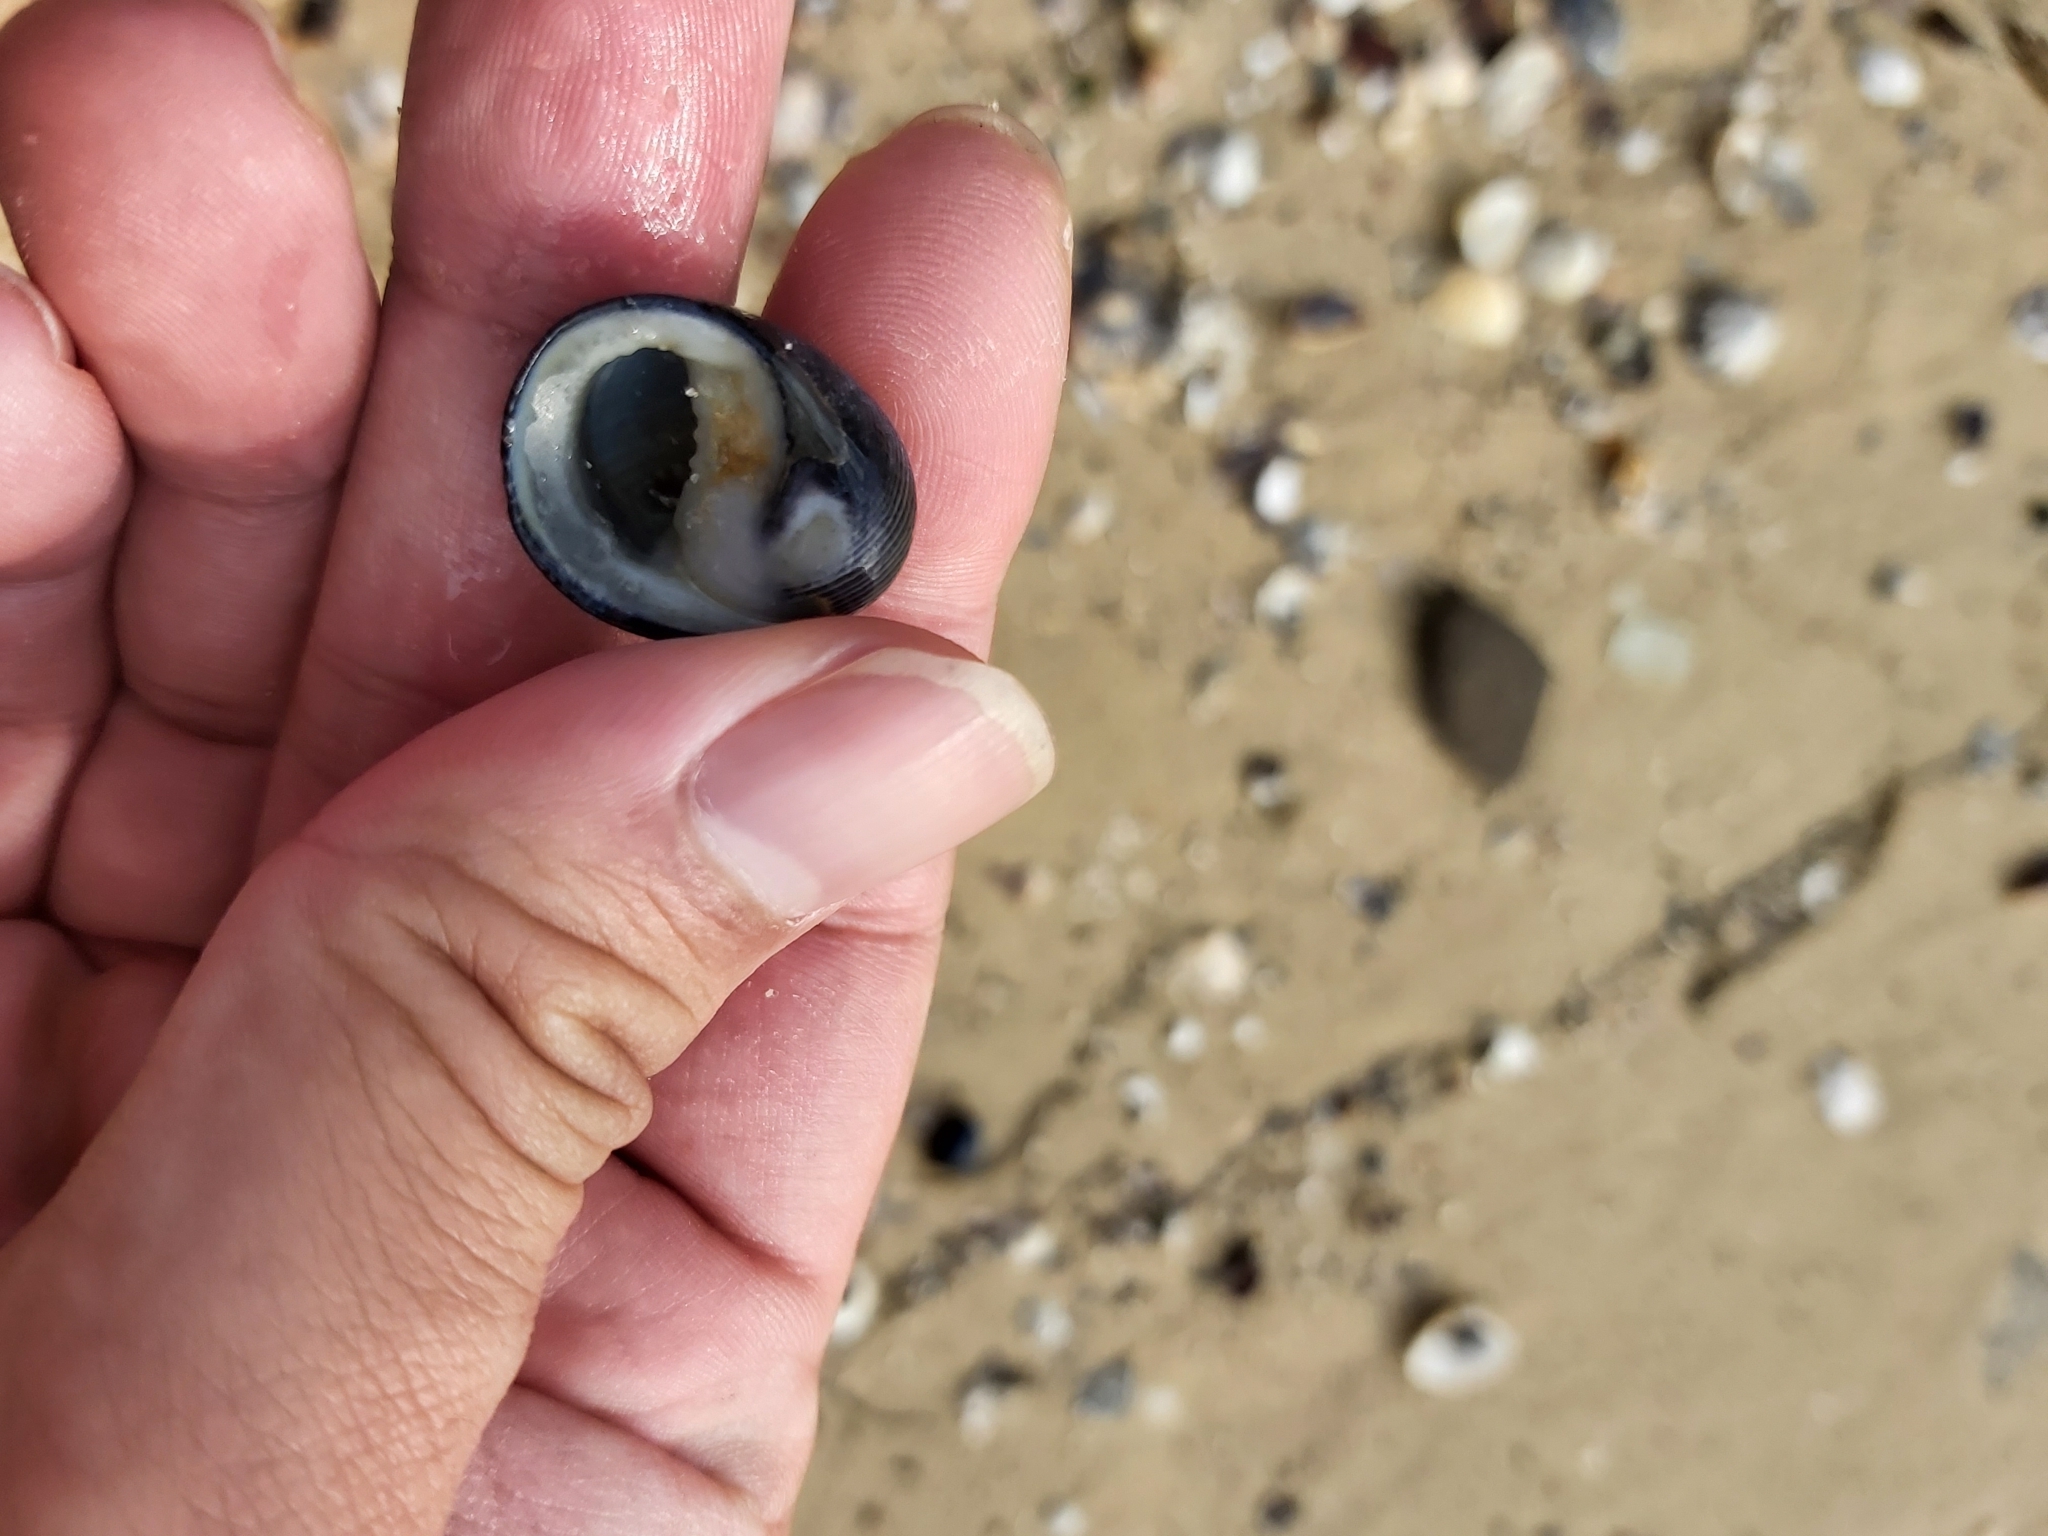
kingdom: Animalia
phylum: Mollusca
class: Gastropoda
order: Cycloneritida
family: Neritidae
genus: Nerita
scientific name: Nerita melanotragus
